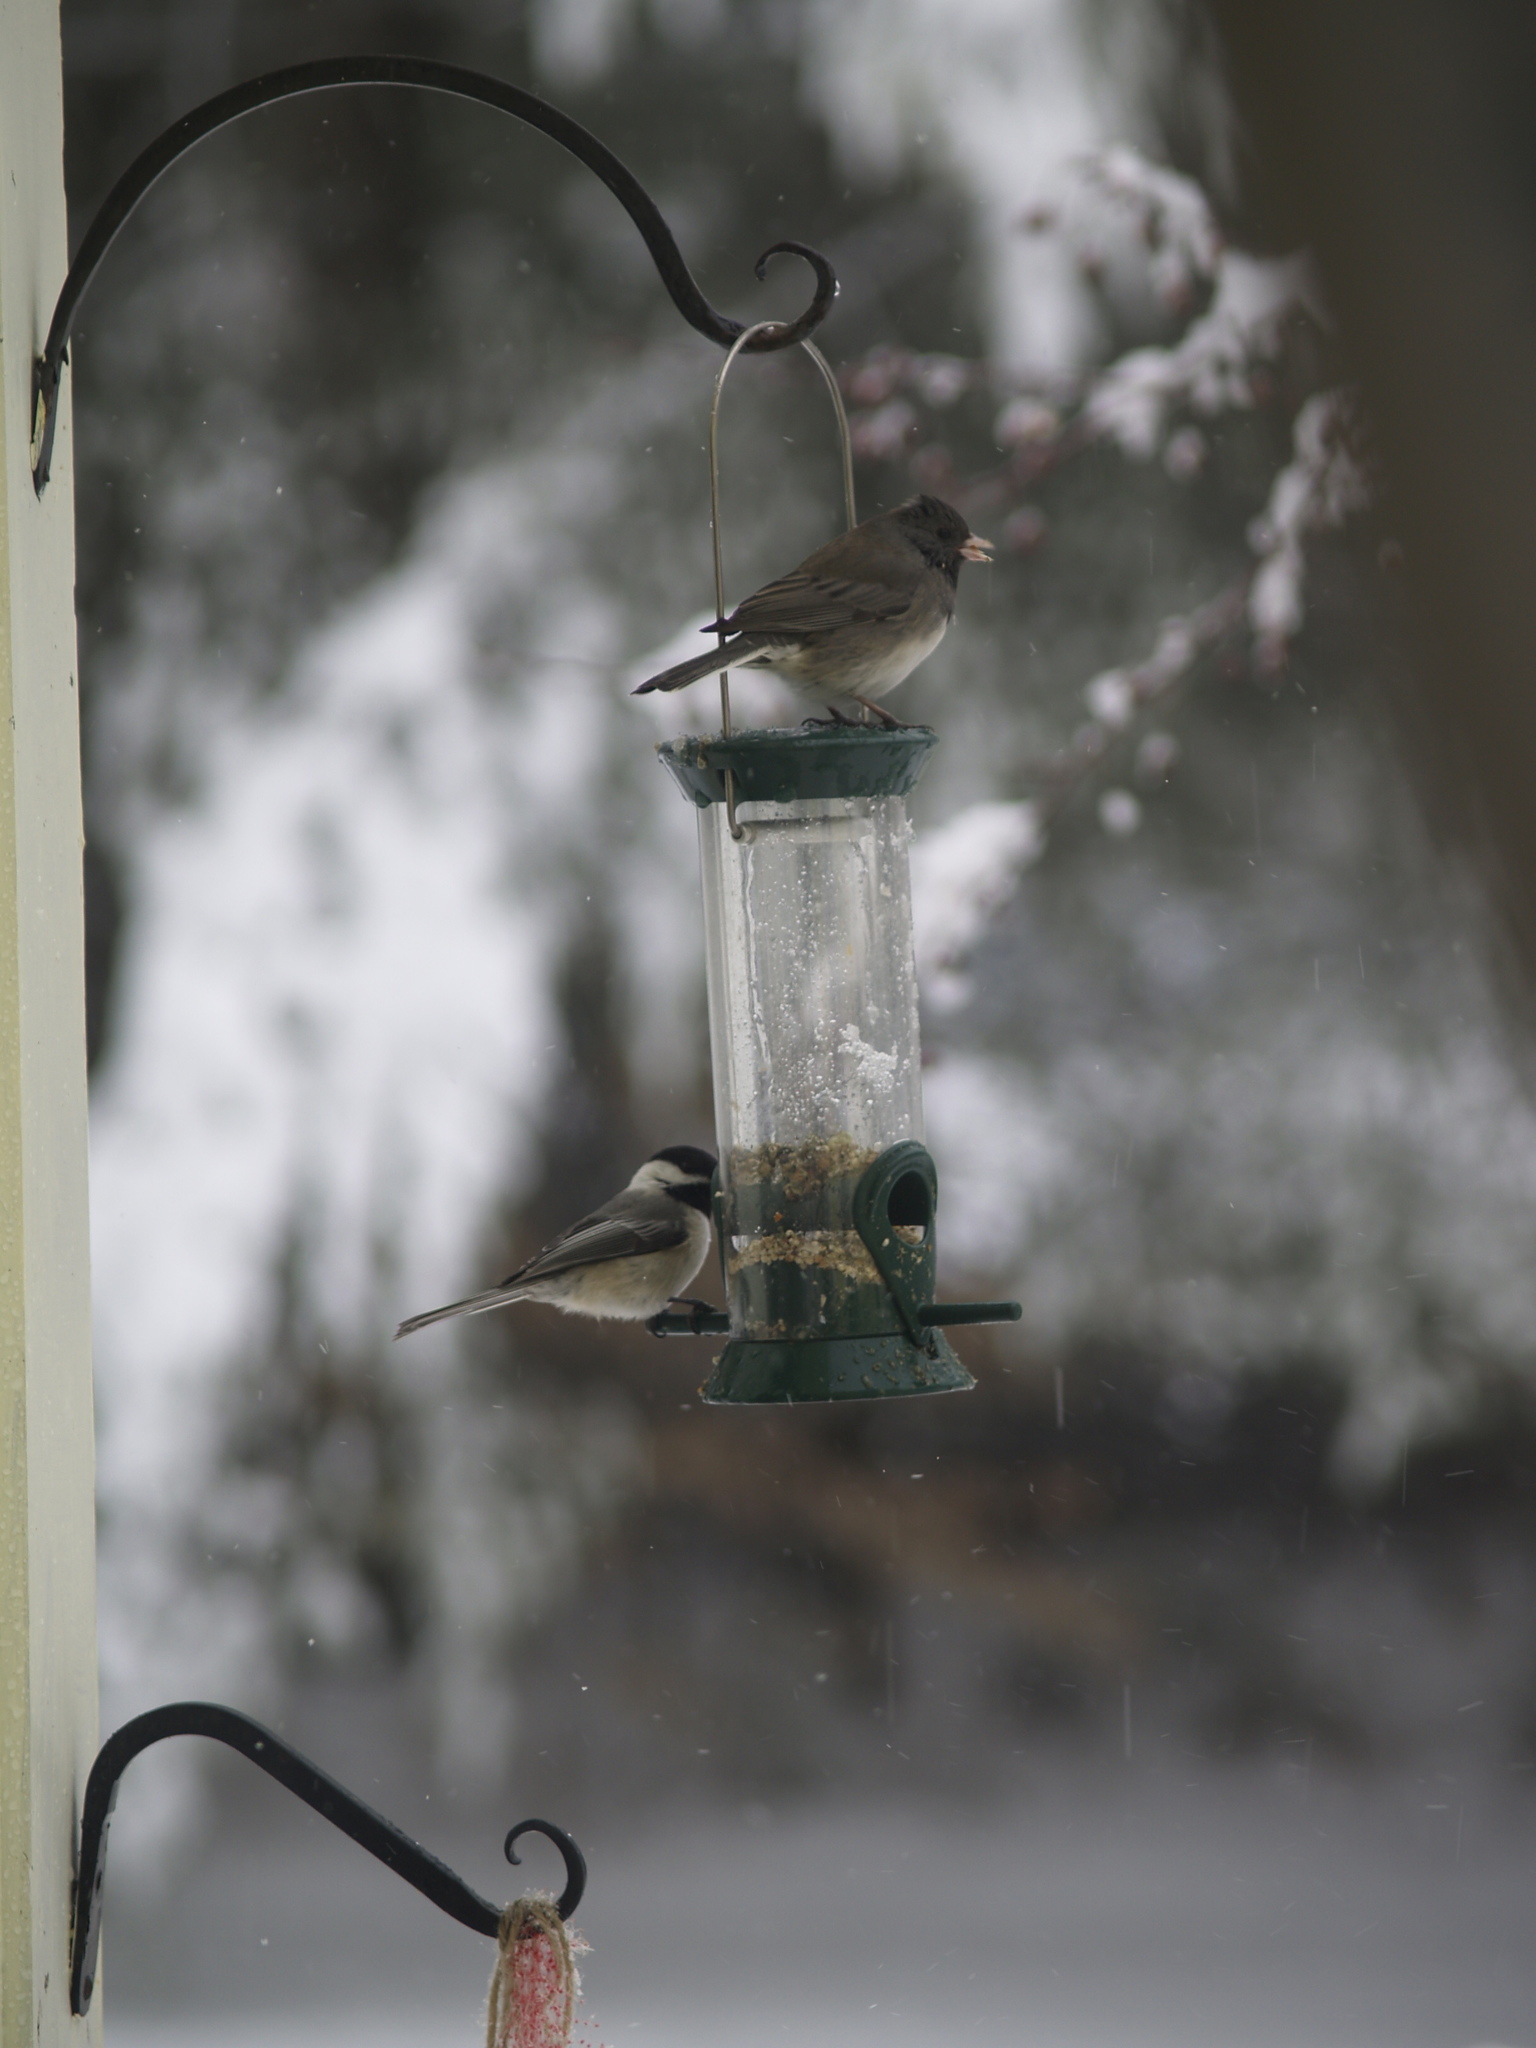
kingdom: Animalia
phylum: Chordata
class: Aves
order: Passeriformes
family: Paridae
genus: Poecile
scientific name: Poecile atricapillus
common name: Black-capped chickadee
